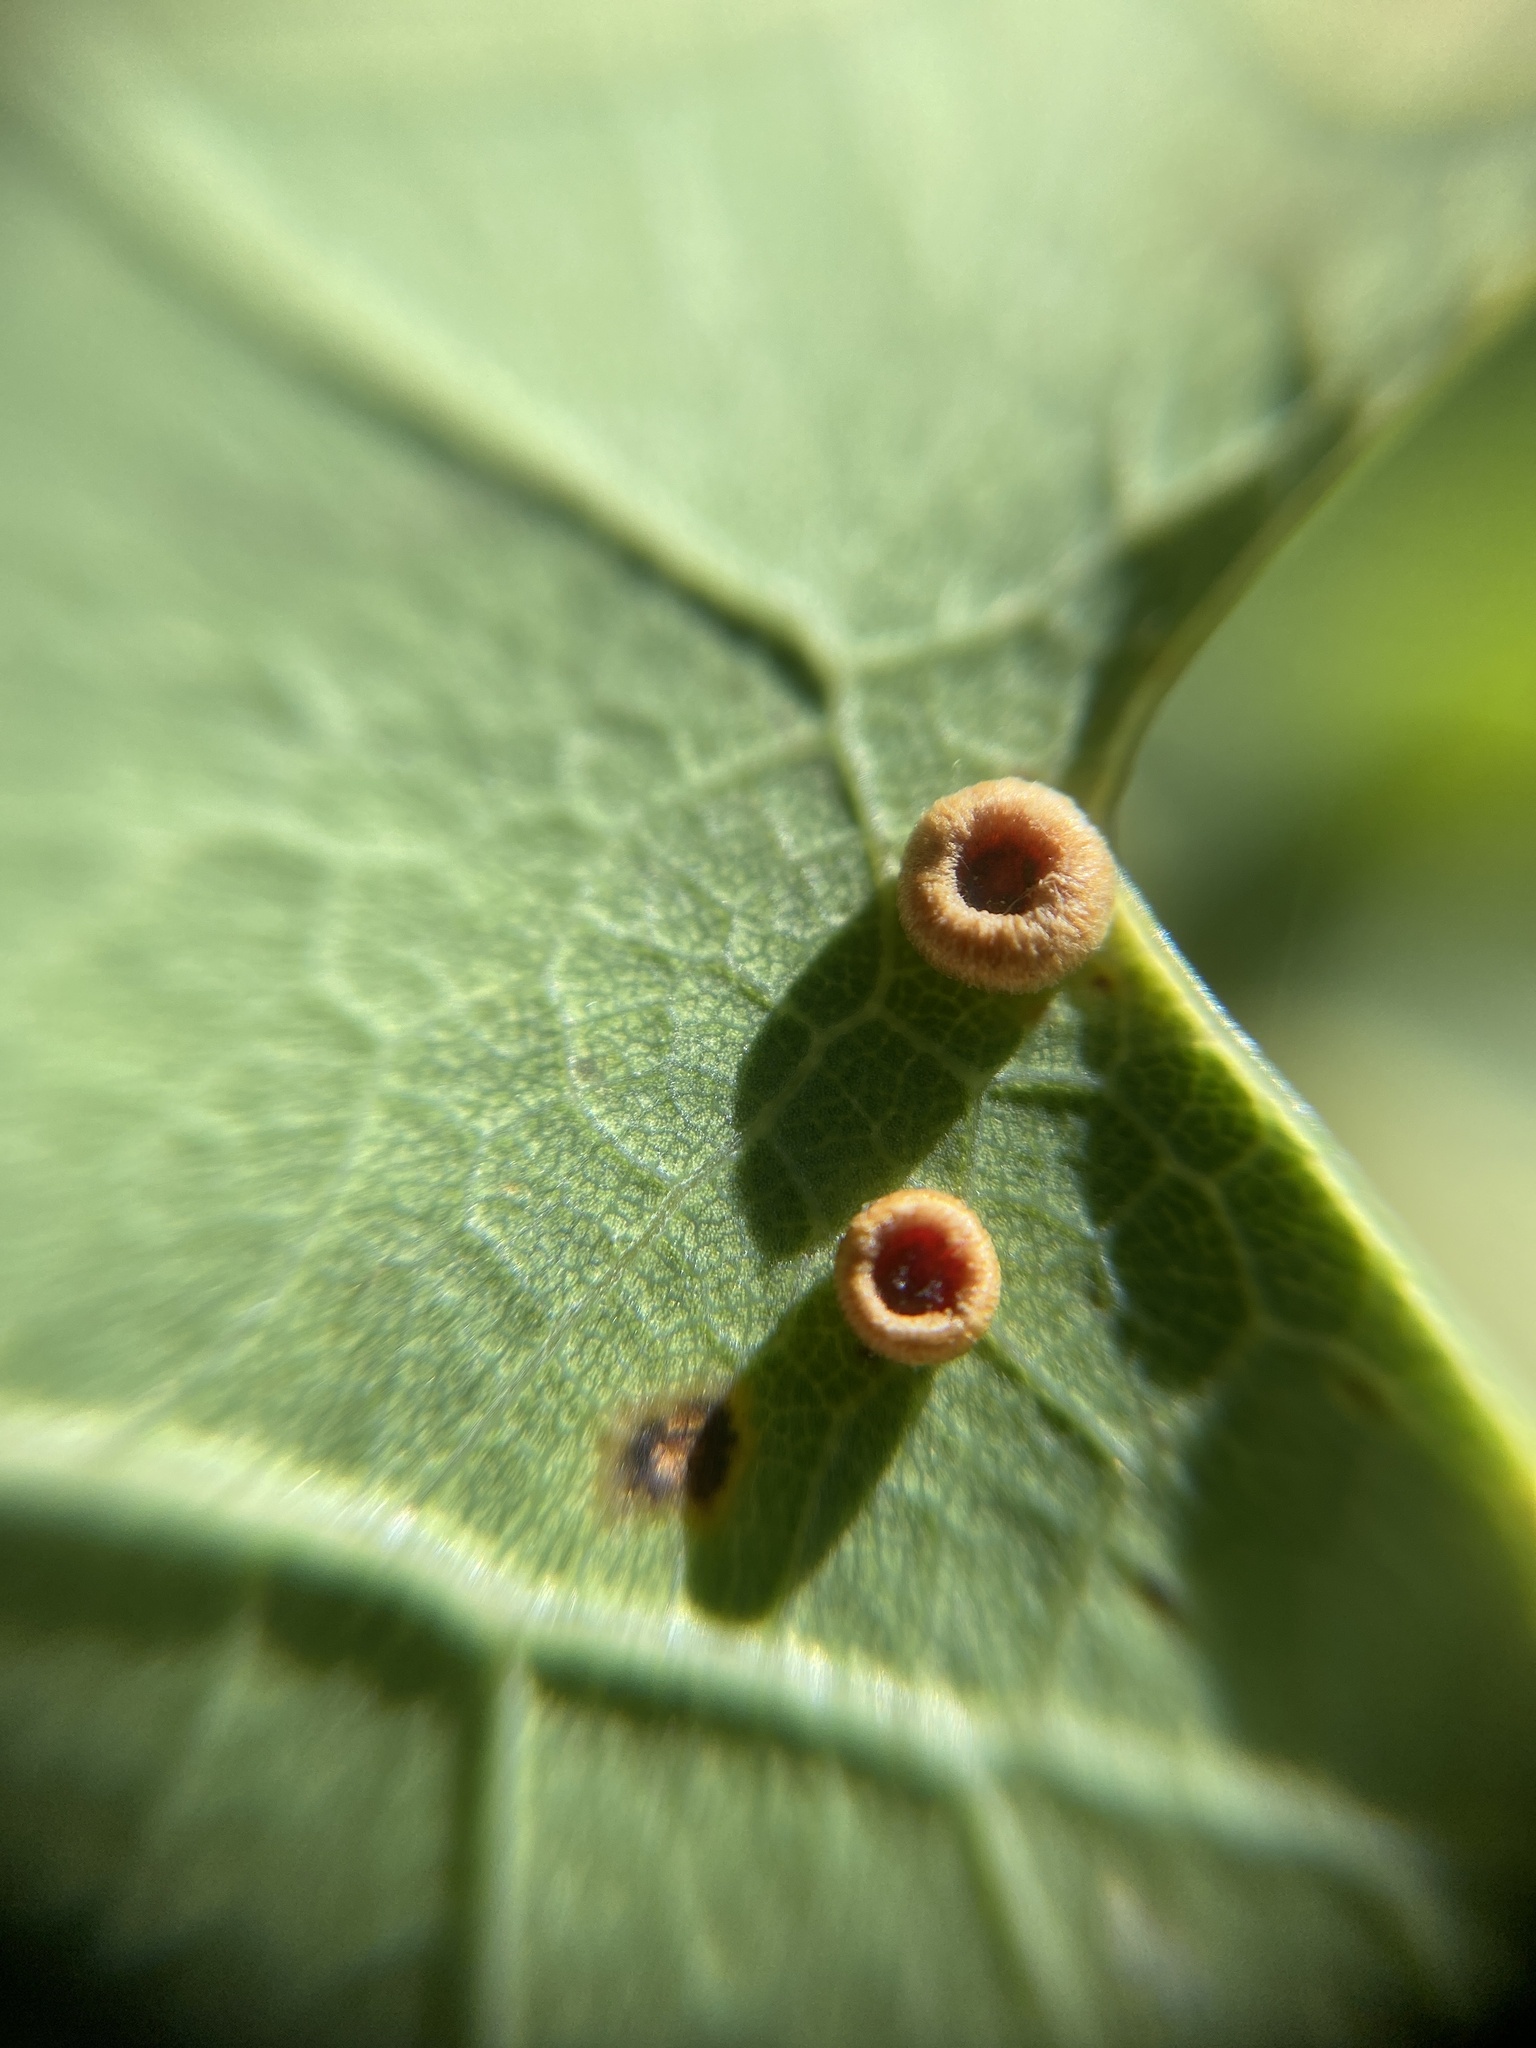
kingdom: Animalia
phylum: Arthropoda
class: Insecta
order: Hymenoptera
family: Cynipidae
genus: Neuroterus
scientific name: Neuroterus numismalis
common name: Silk-button spangle gall
